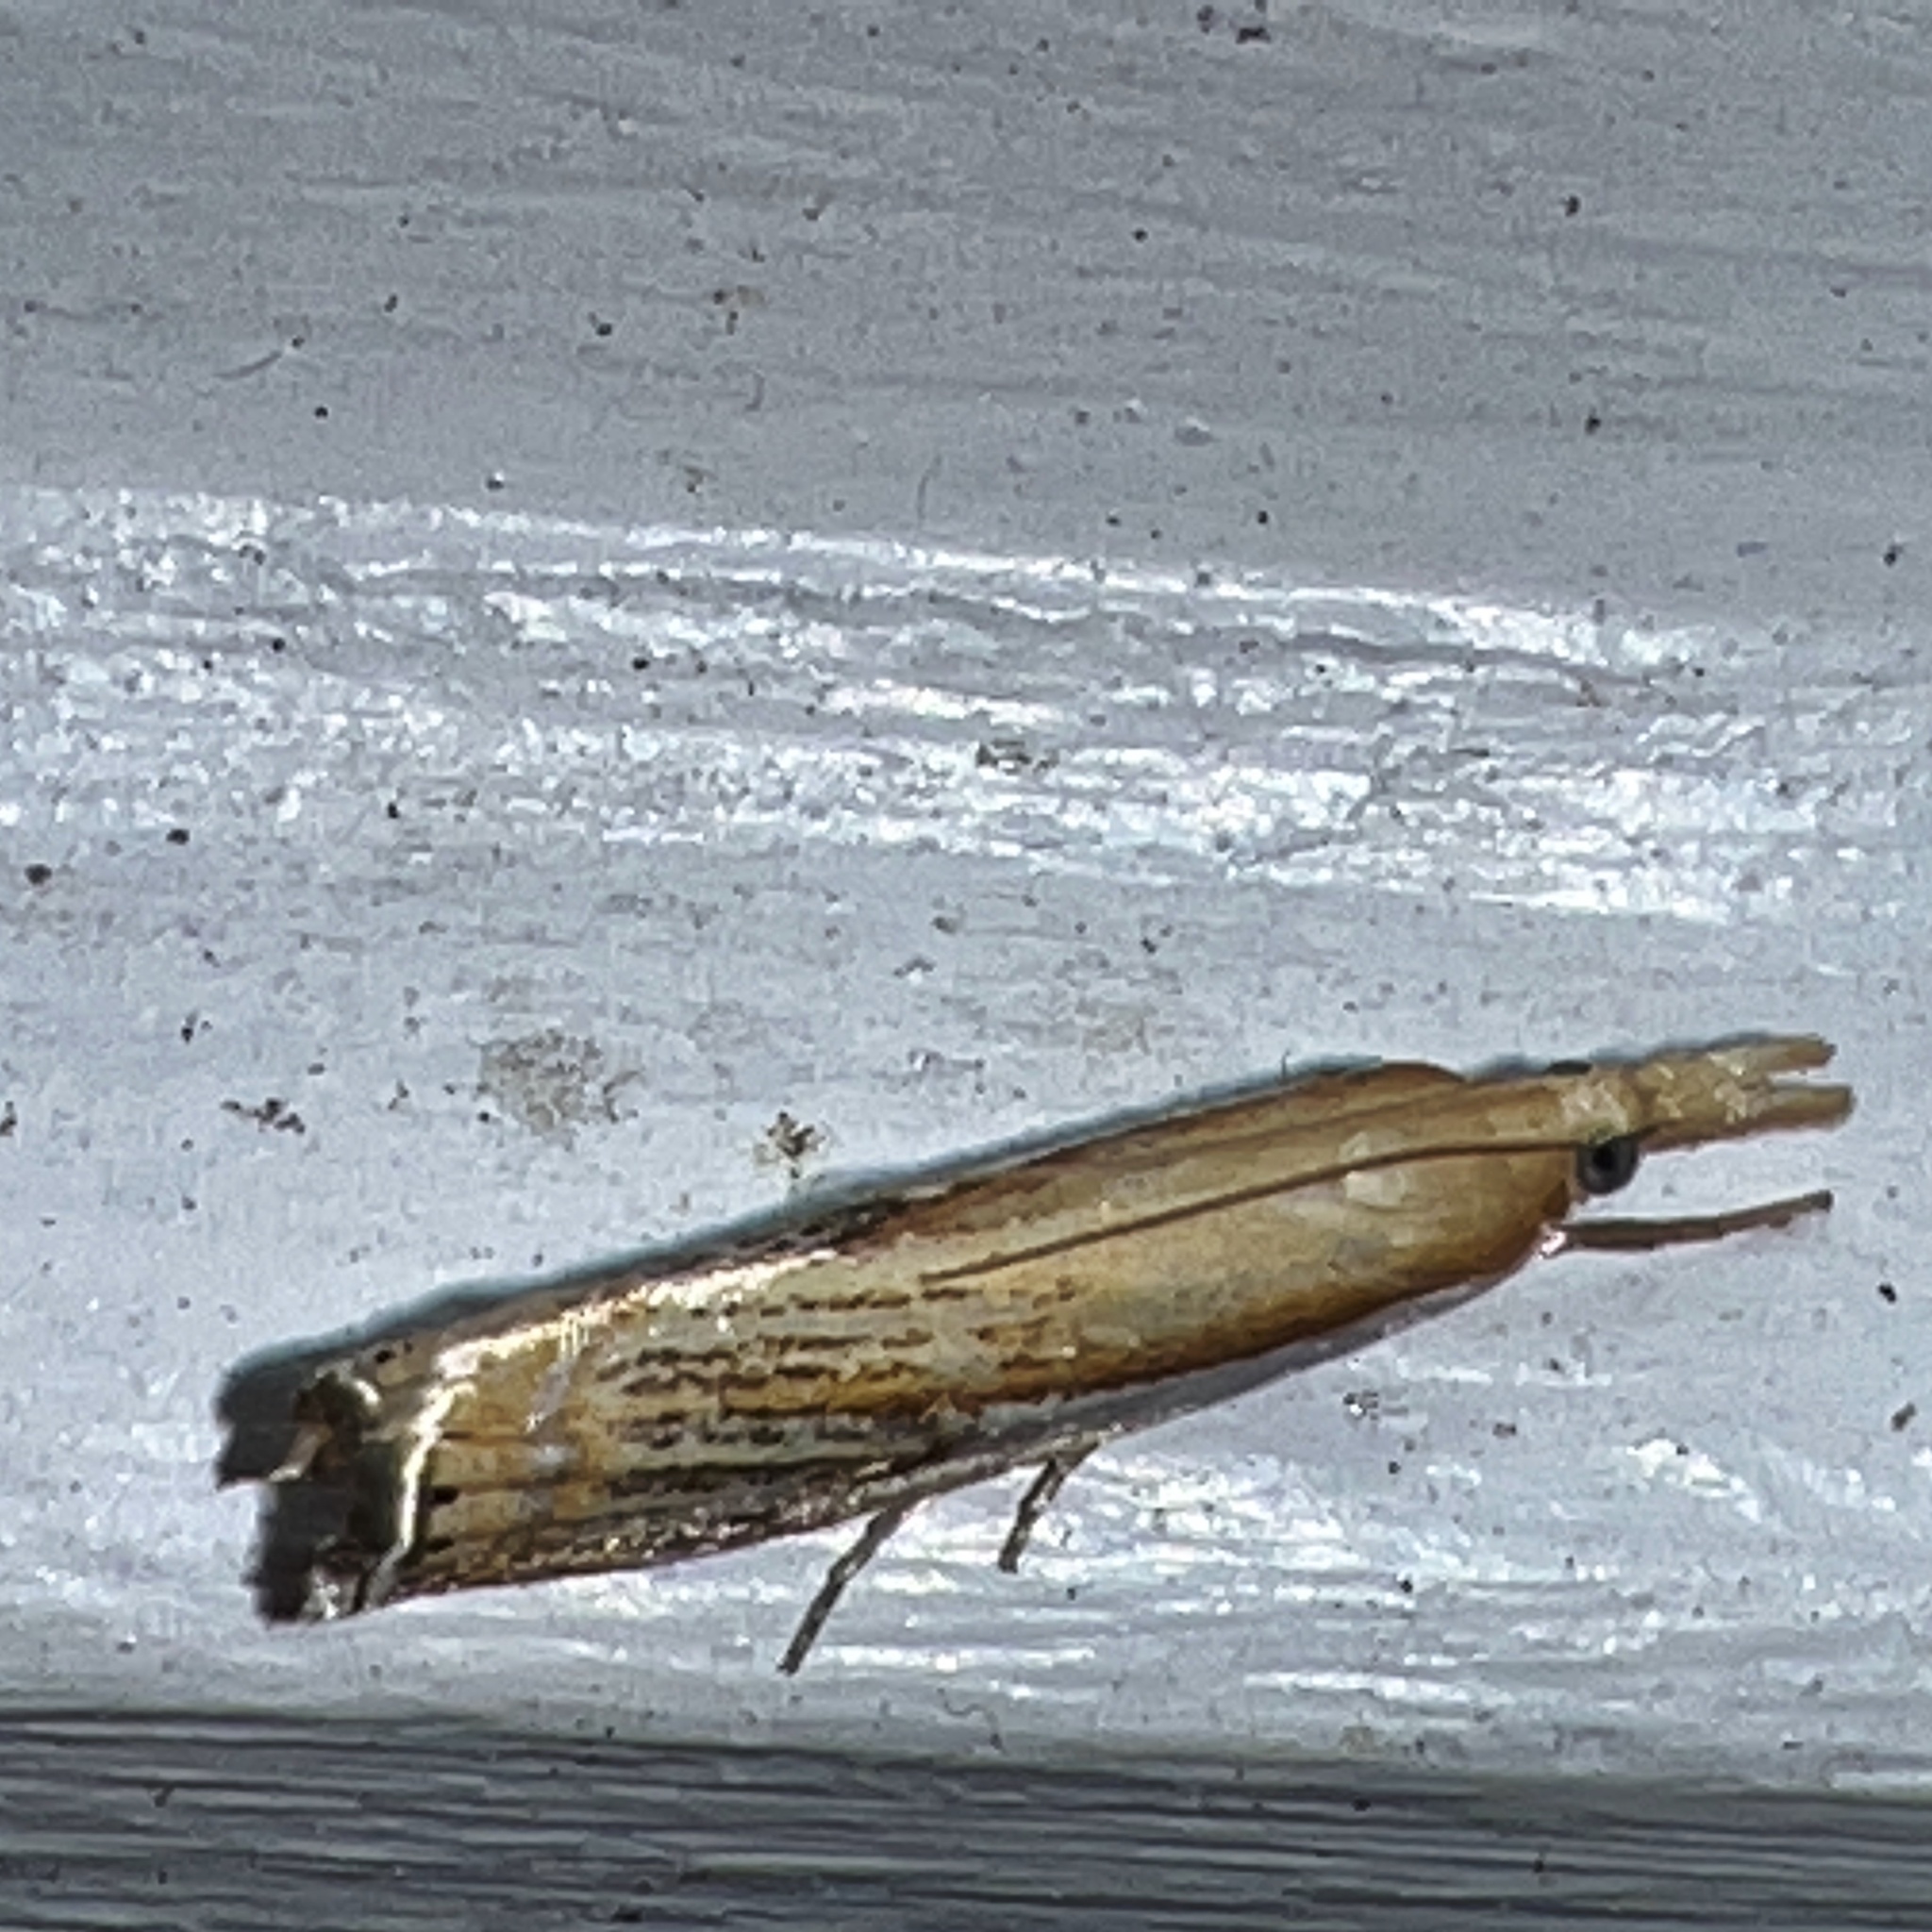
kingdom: Animalia
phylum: Arthropoda
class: Insecta
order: Lepidoptera
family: Crambidae
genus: Crambus
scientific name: Crambus agitatellus
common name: Double-banded grass-veneer
